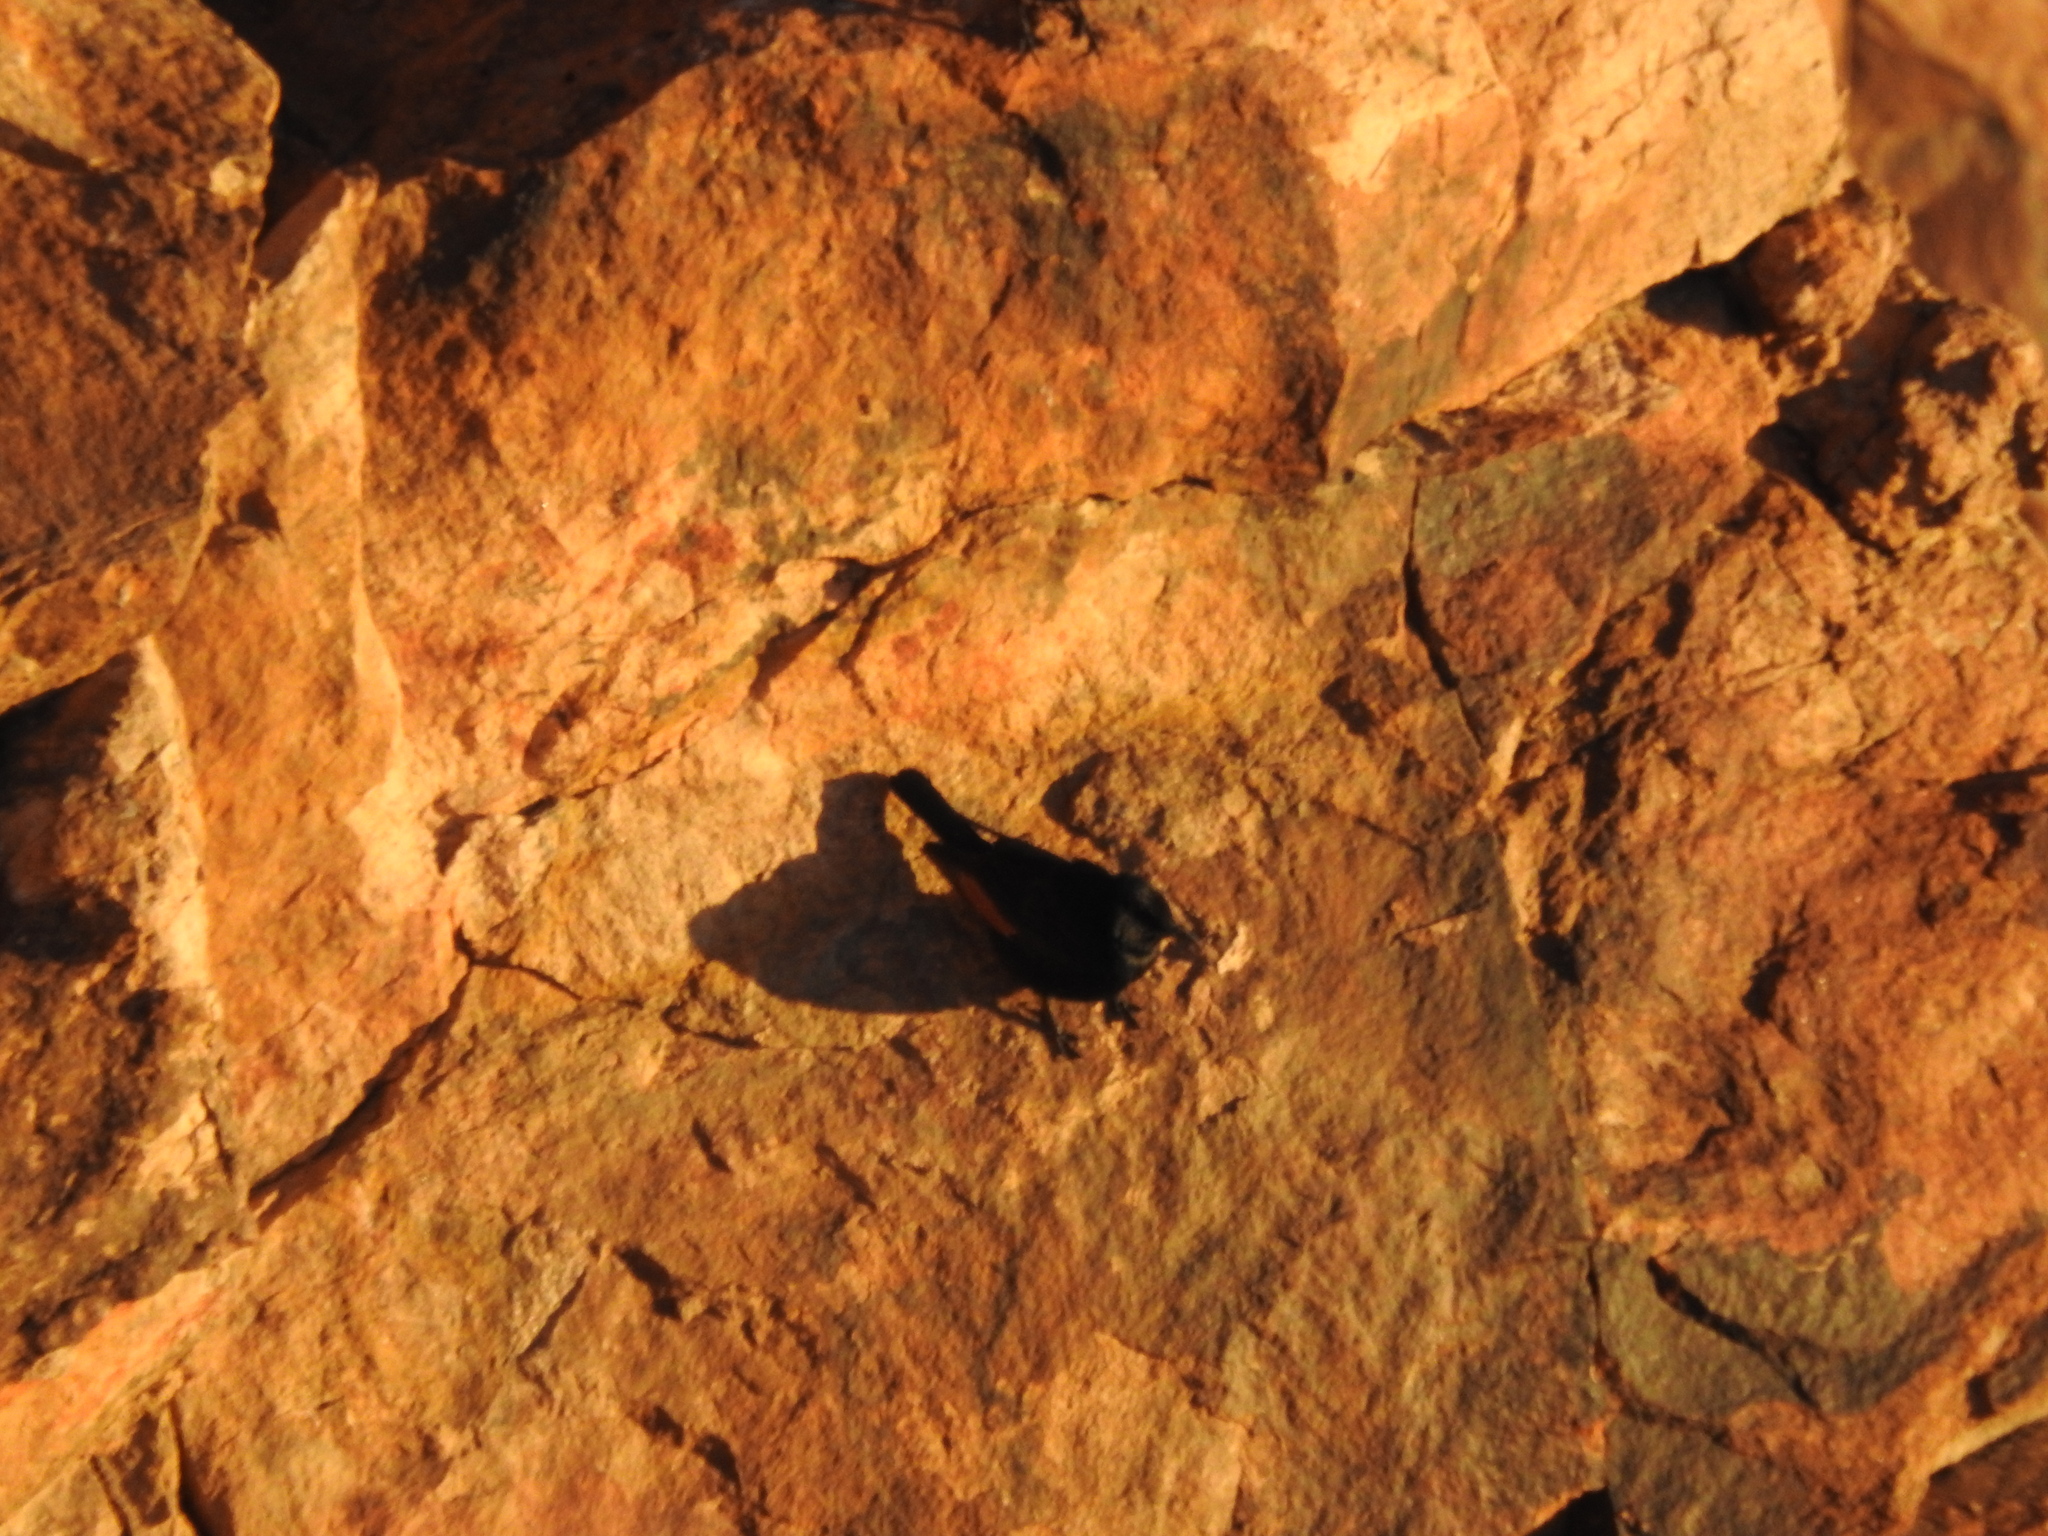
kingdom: Animalia
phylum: Chordata
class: Aves
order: Passeriformes
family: Sturnidae
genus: Onychognathus
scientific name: Onychognathus tristramii
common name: Tristram's starling
